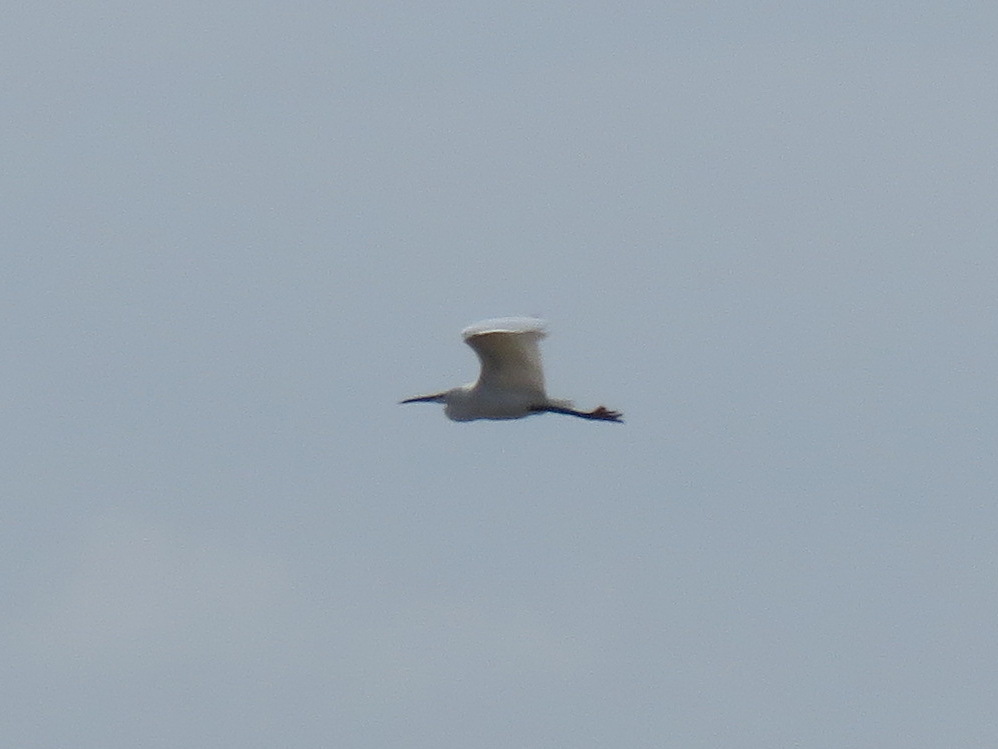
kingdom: Animalia
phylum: Chordata
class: Aves
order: Pelecaniformes
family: Ardeidae
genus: Egretta
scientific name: Egretta garzetta
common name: Little egret
